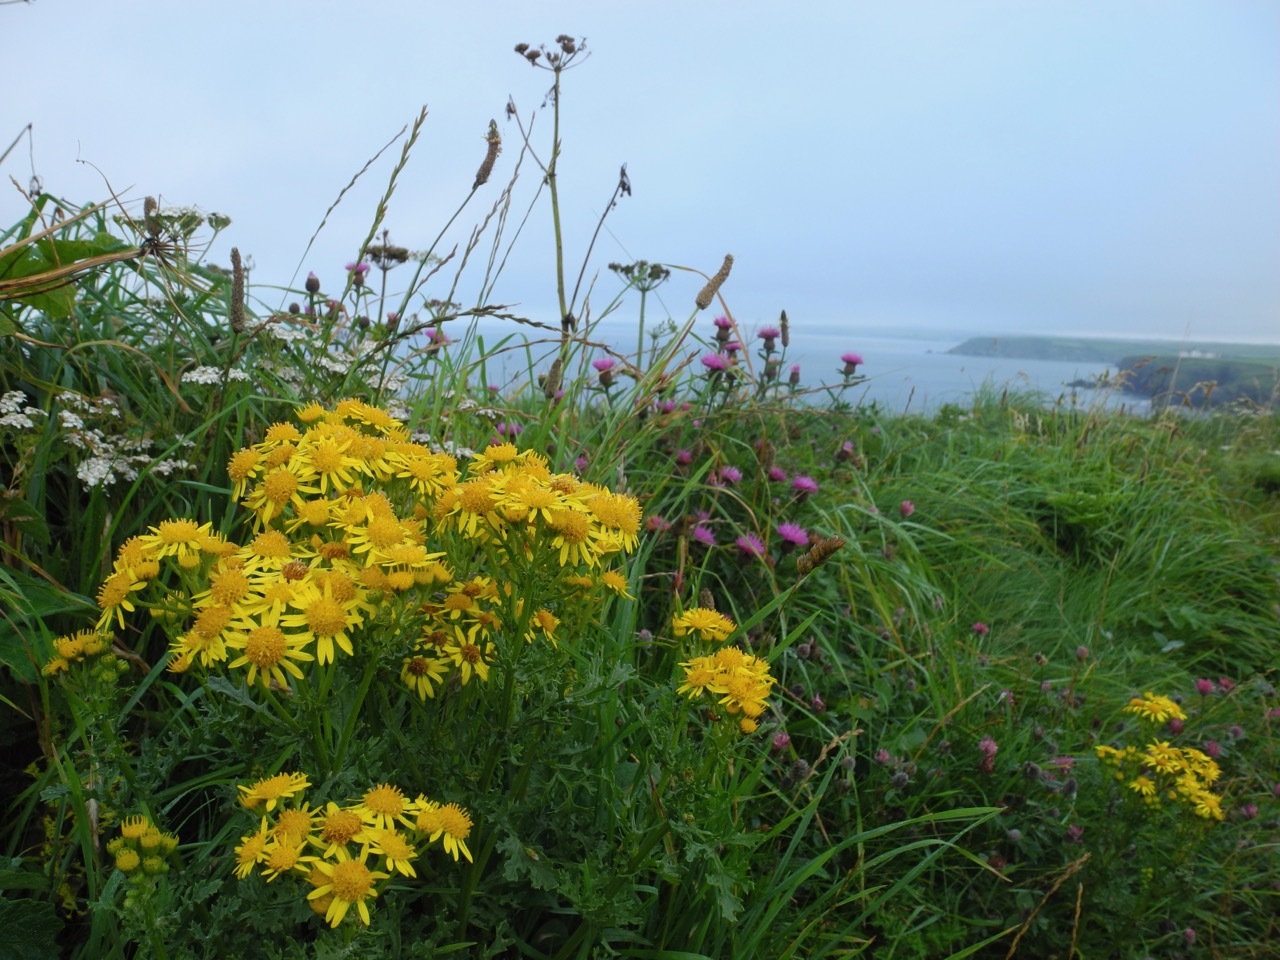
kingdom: Plantae
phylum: Tracheophyta
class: Magnoliopsida
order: Asterales
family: Asteraceae
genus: Jacobaea
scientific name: Jacobaea vulgaris
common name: Stinking willie
